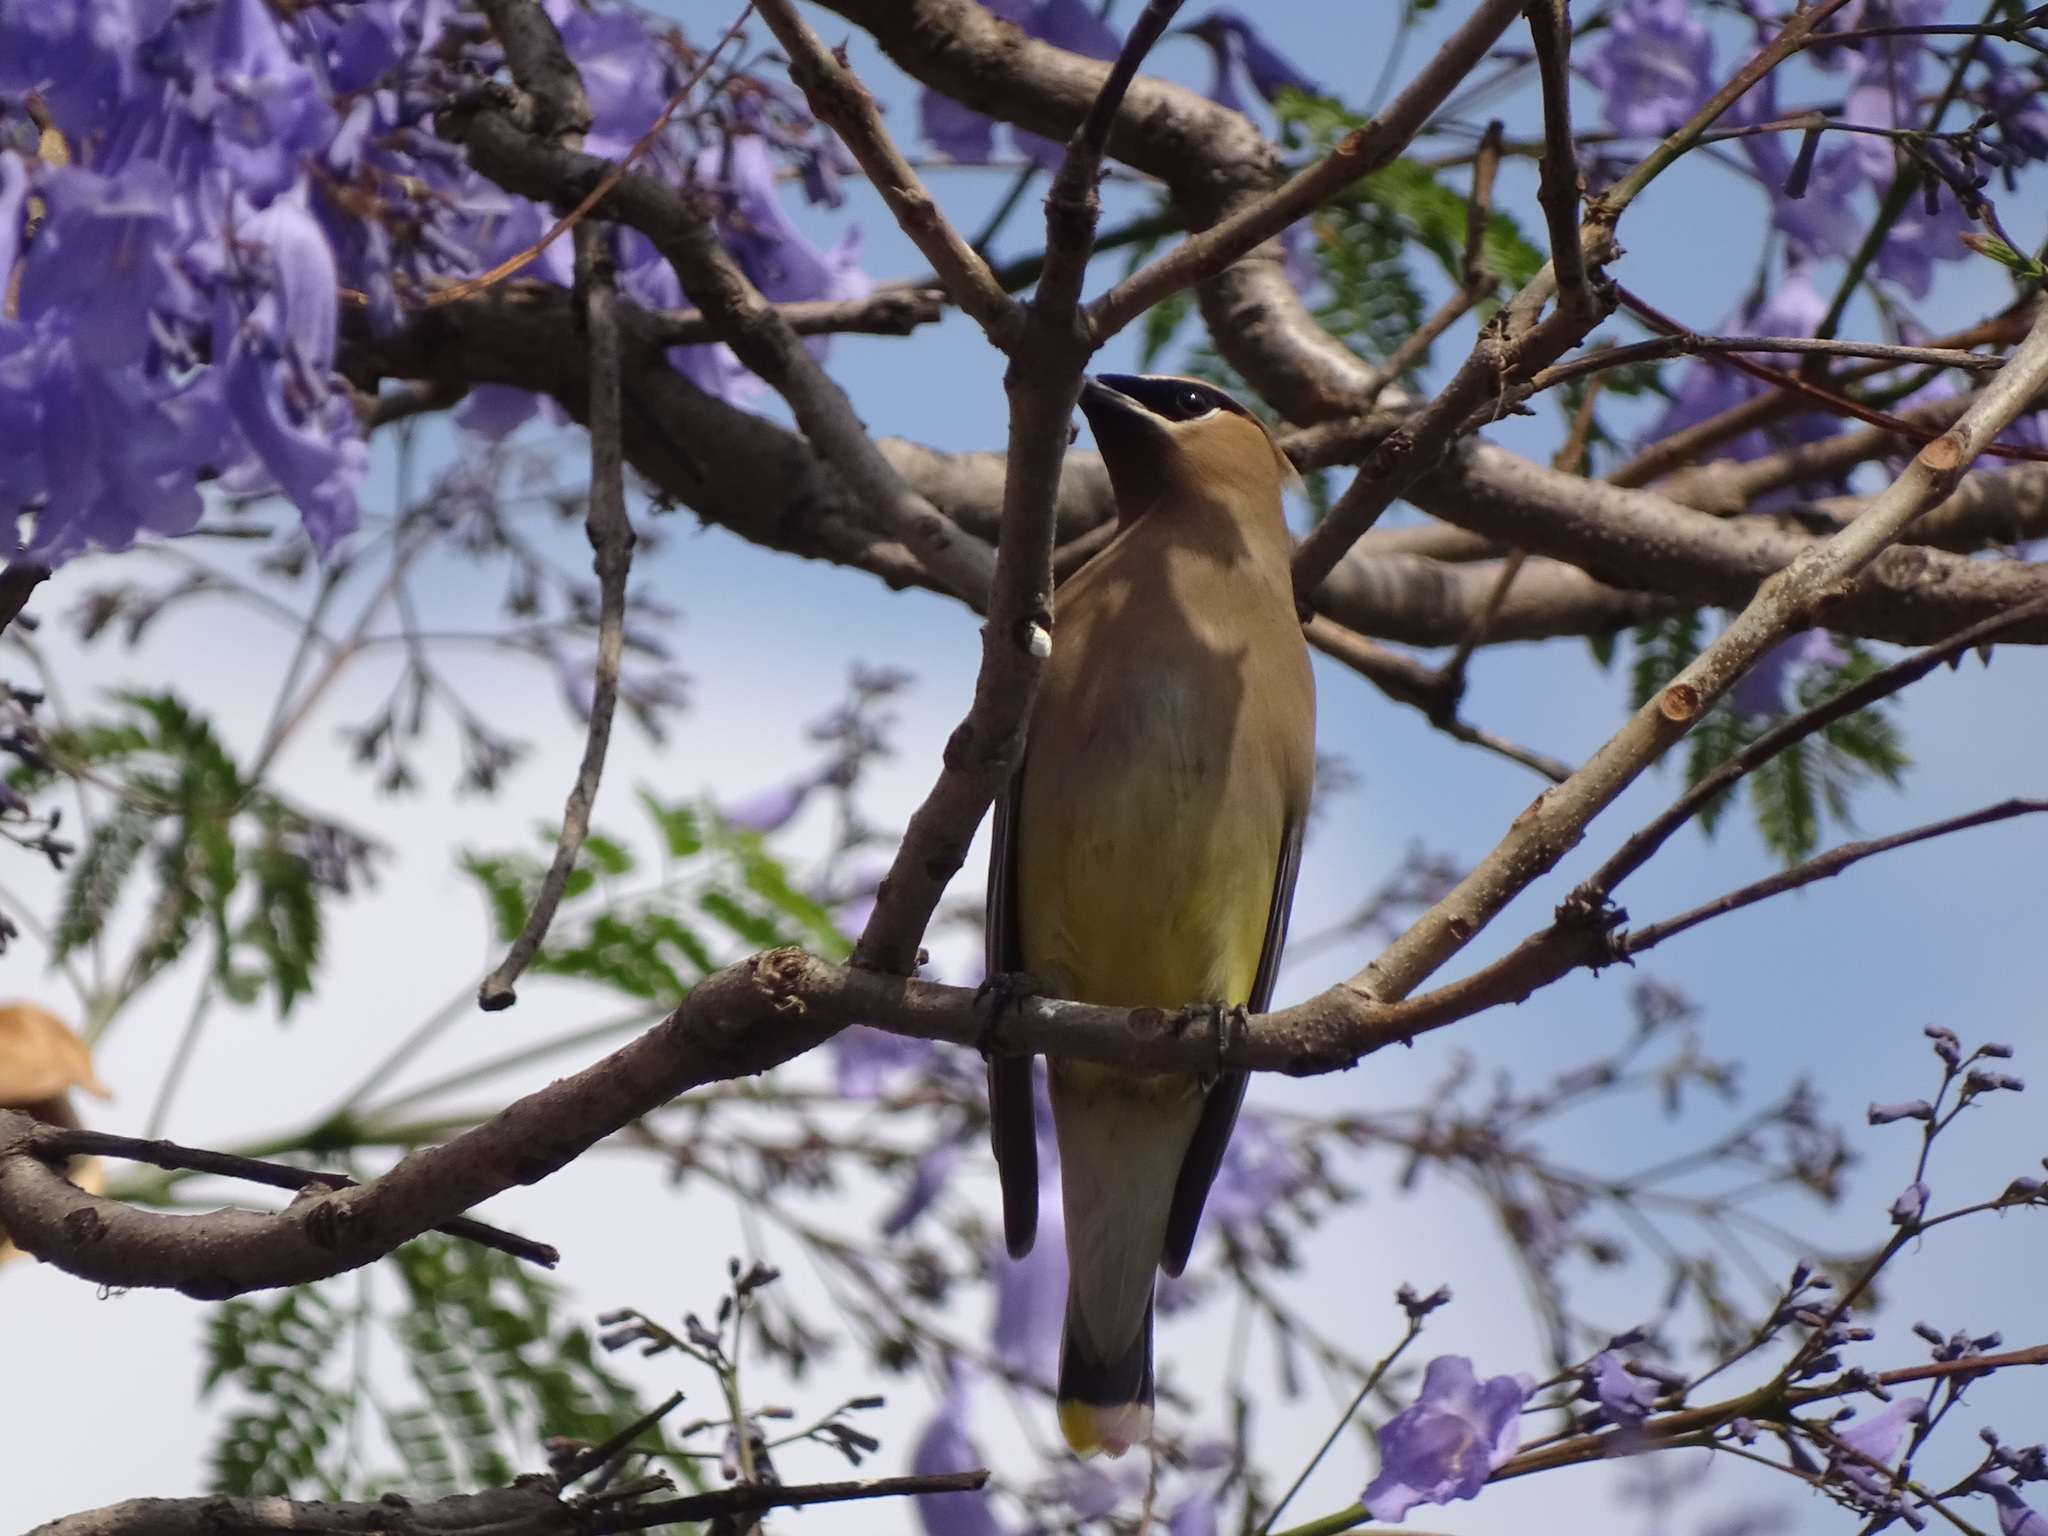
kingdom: Animalia
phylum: Chordata
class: Aves
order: Passeriformes
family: Bombycillidae
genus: Bombycilla
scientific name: Bombycilla cedrorum
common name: Cedar waxwing
